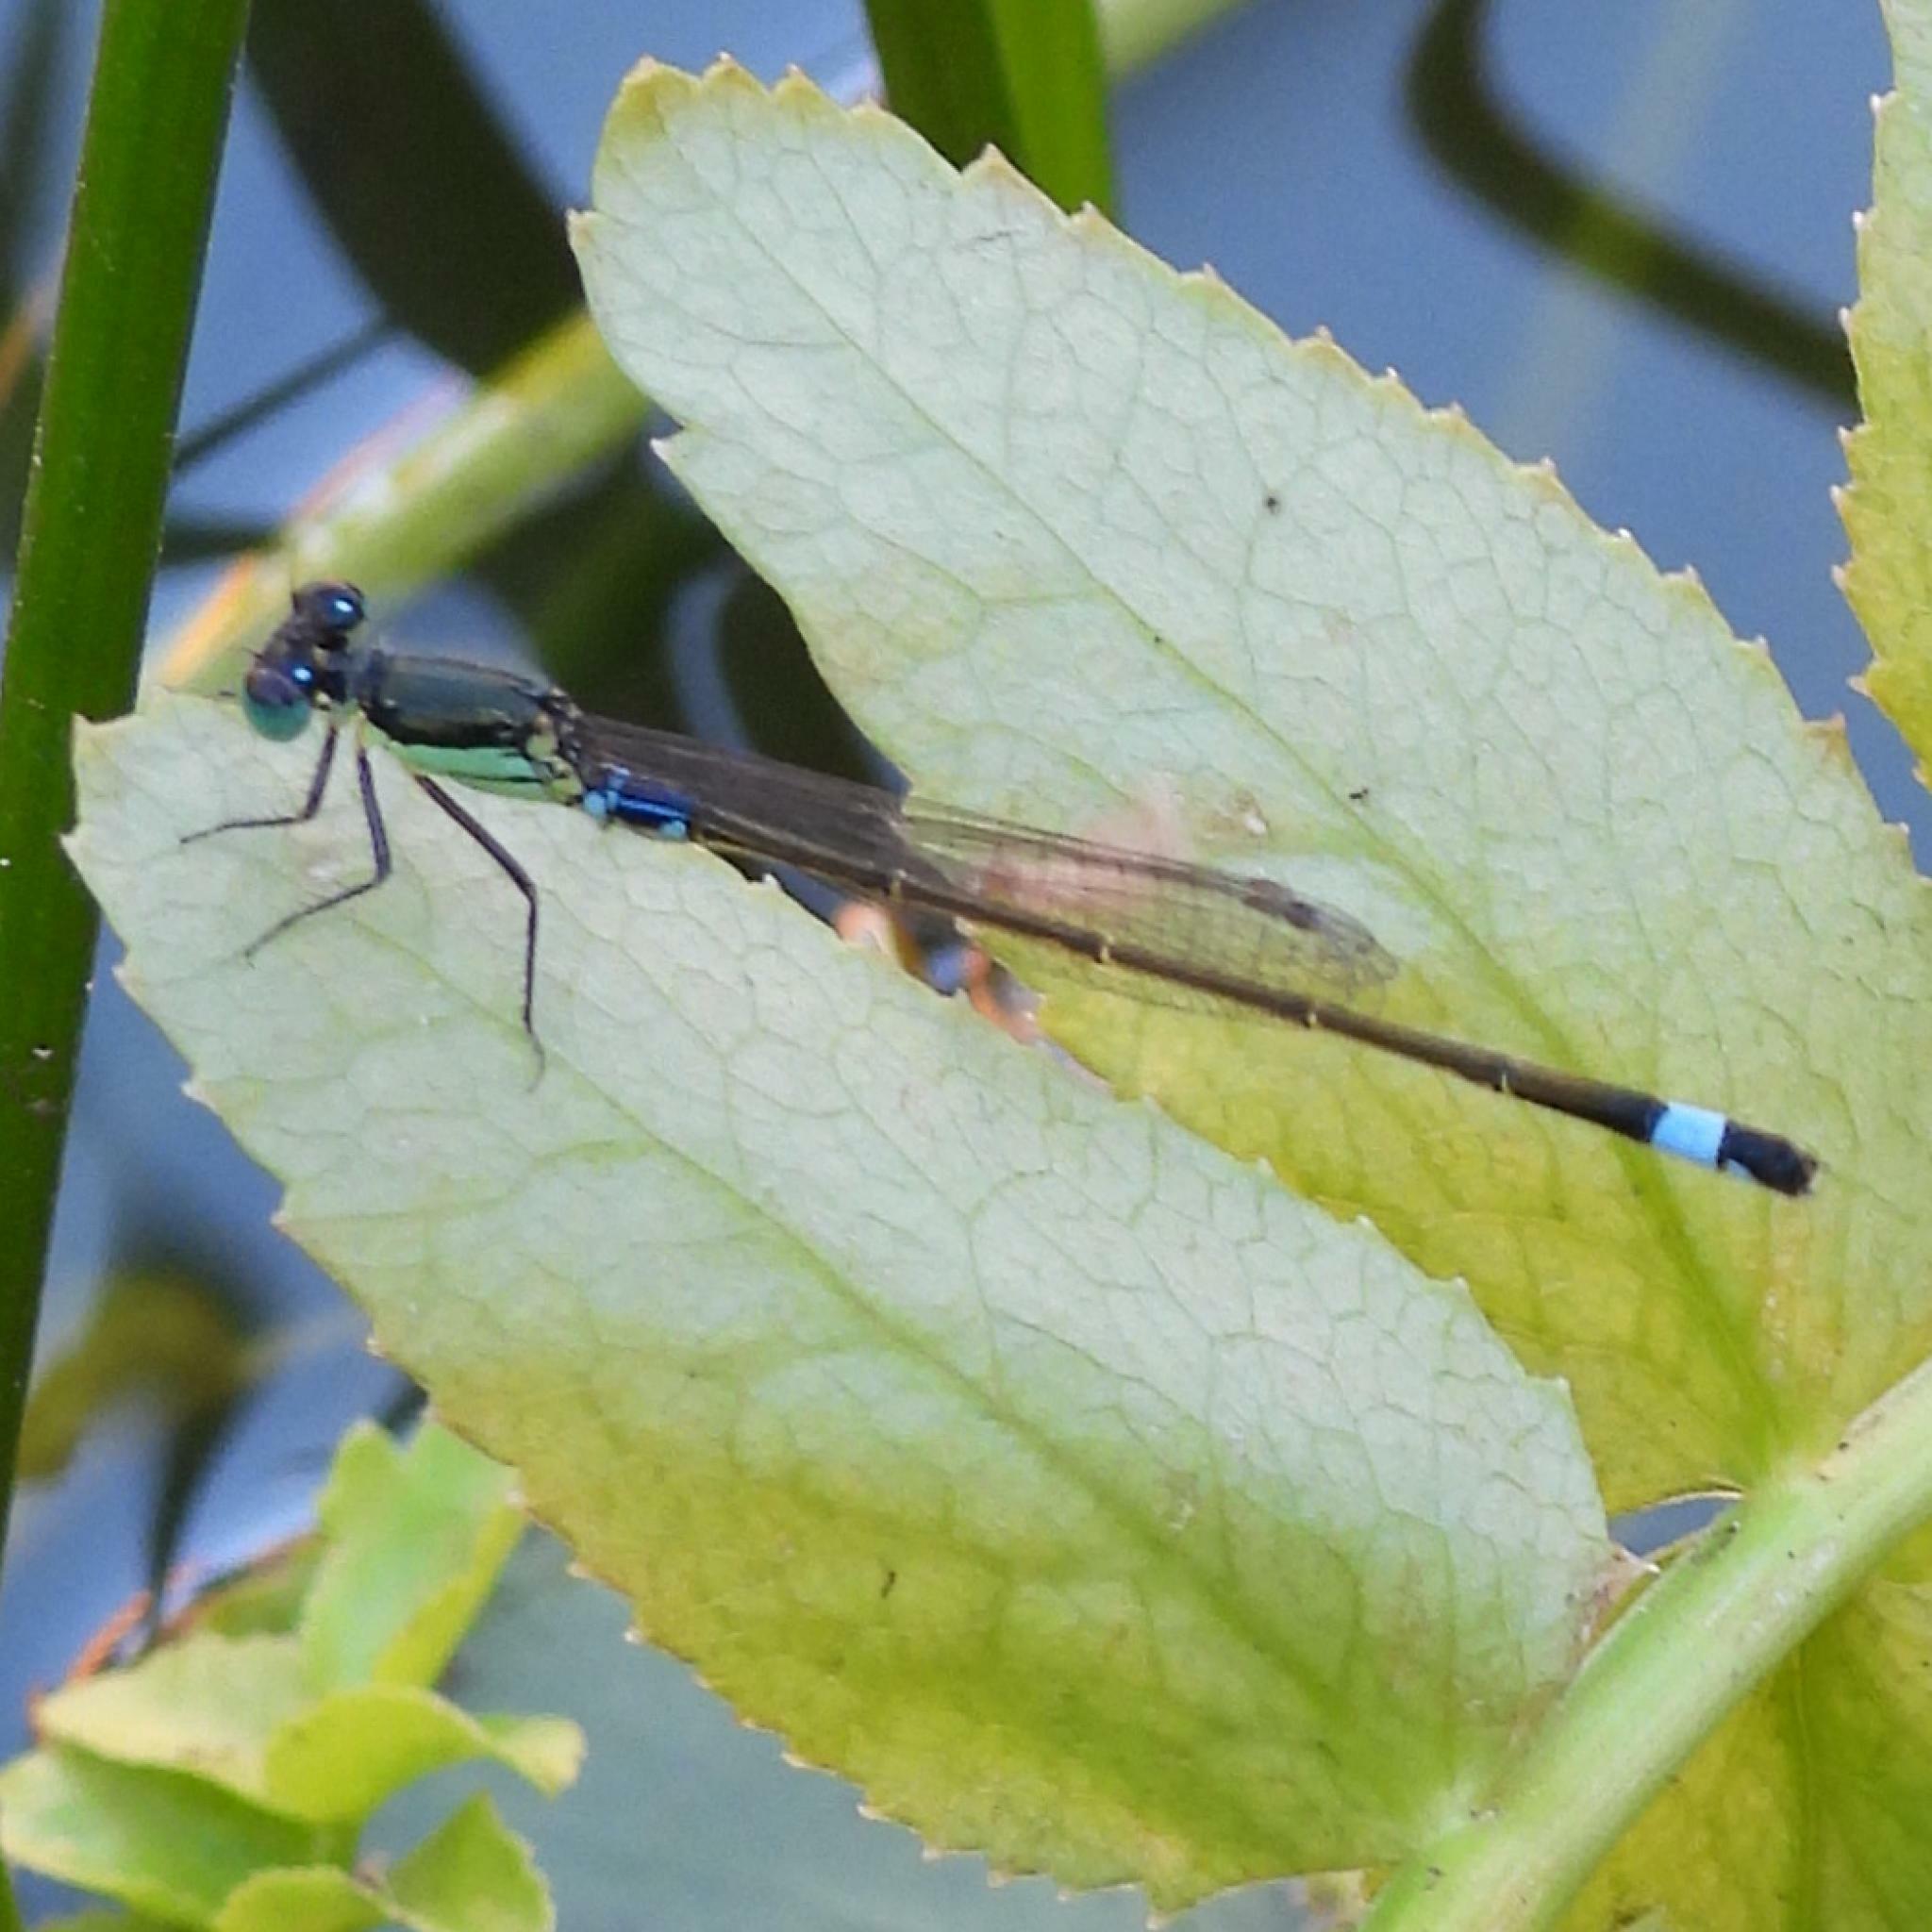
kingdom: Animalia
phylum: Arthropoda
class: Insecta
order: Odonata
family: Coenagrionidae
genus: Ischnura
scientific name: Ischnura senegalensis
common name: Tropical bluetail
